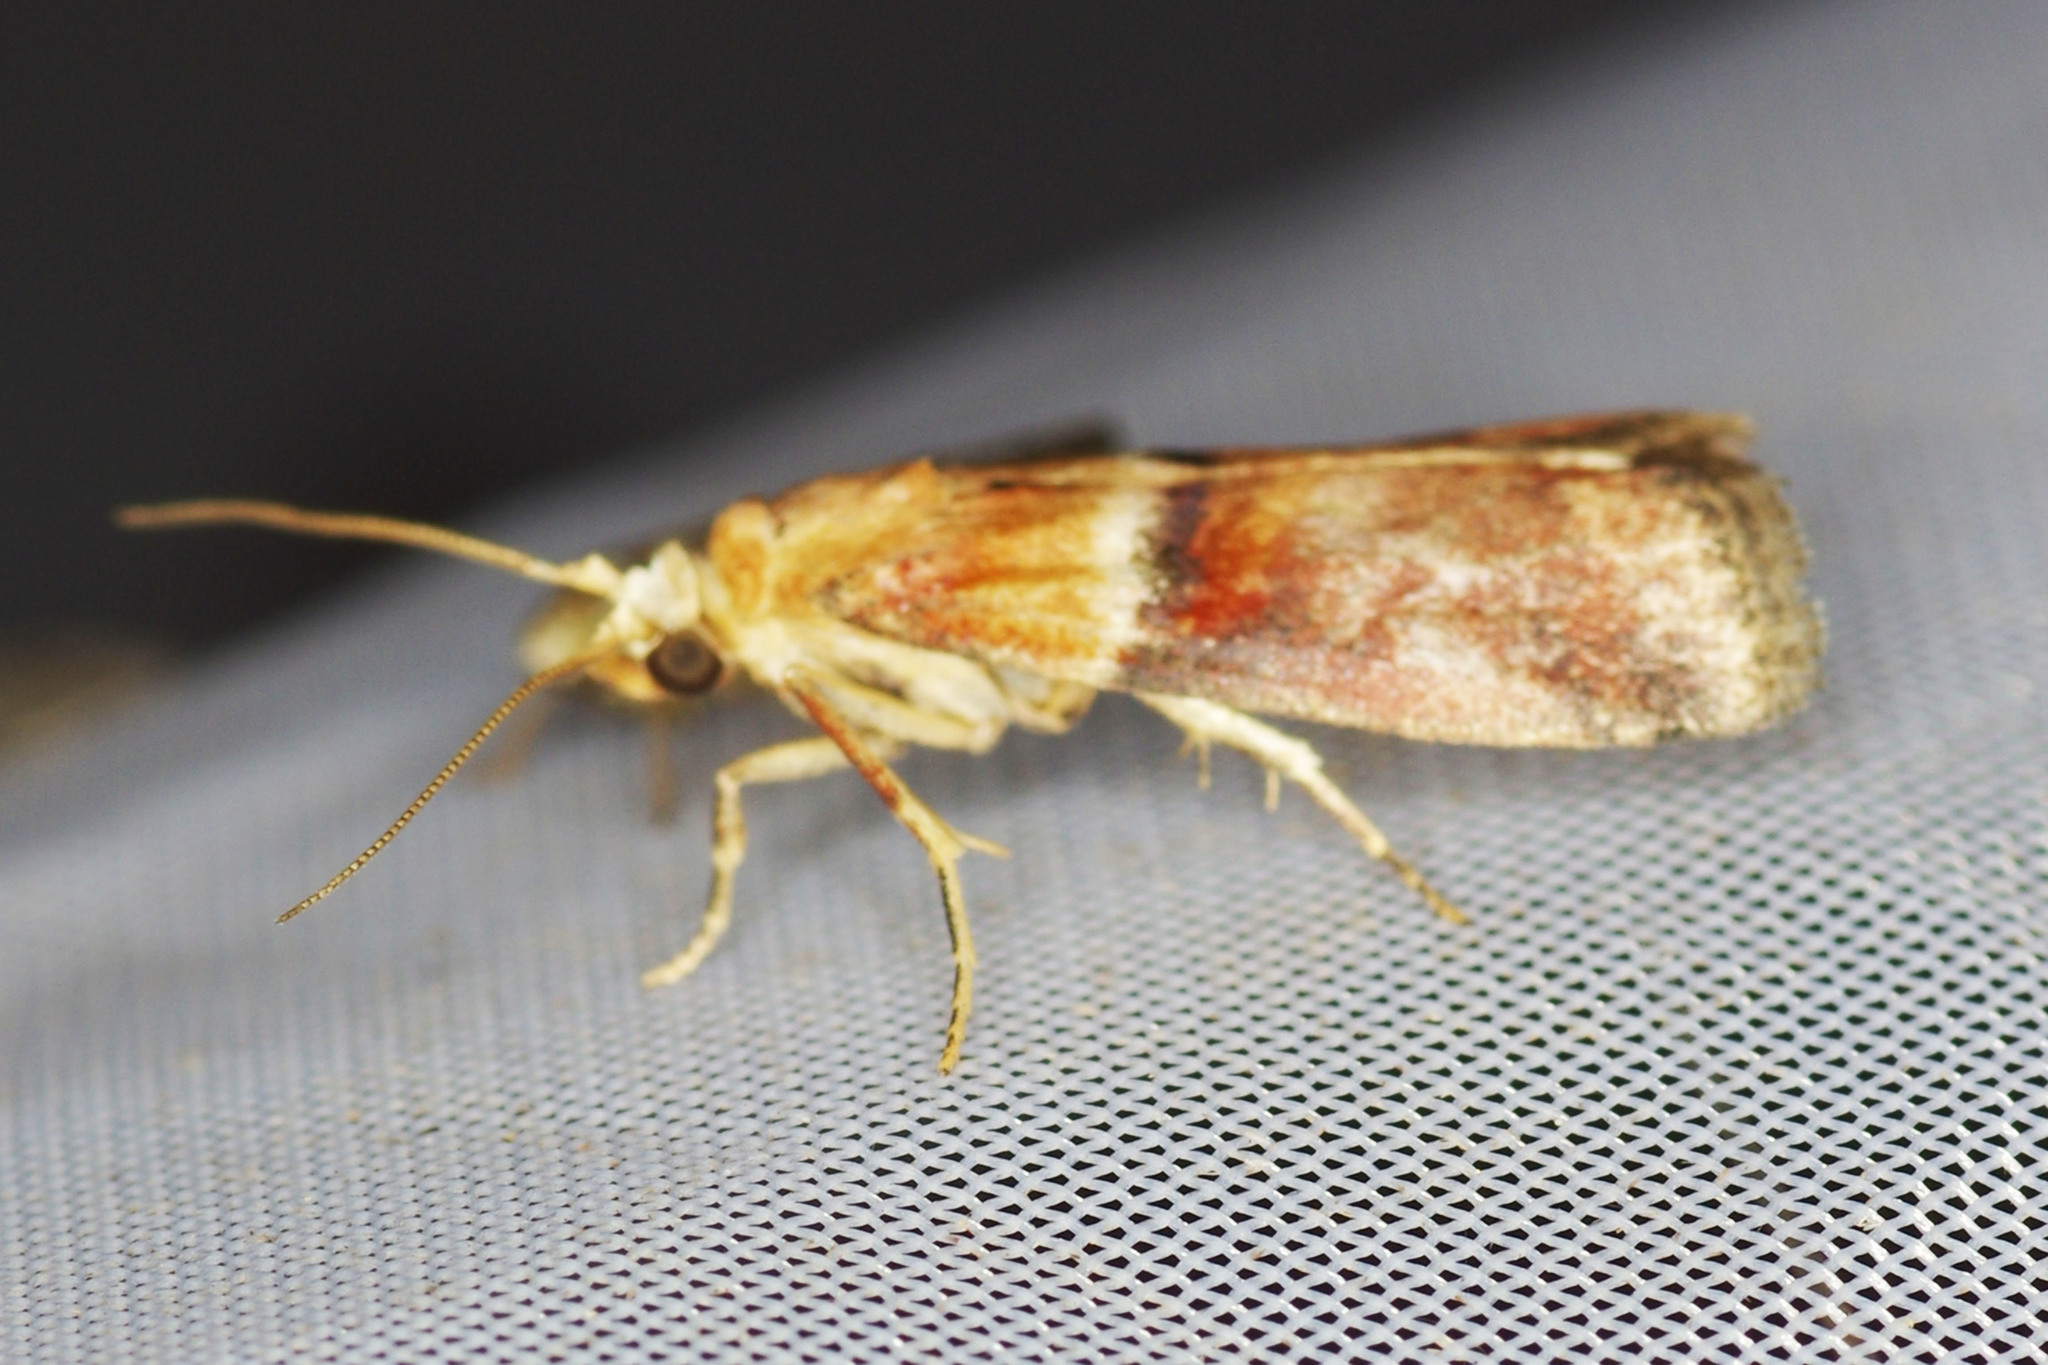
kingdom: Animalia
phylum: Arthropoda
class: Insecta
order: Lepidoptera
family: Pyralidae
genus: Acrobasis
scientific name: Acrobasis repandana
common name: Warted knot-horn
